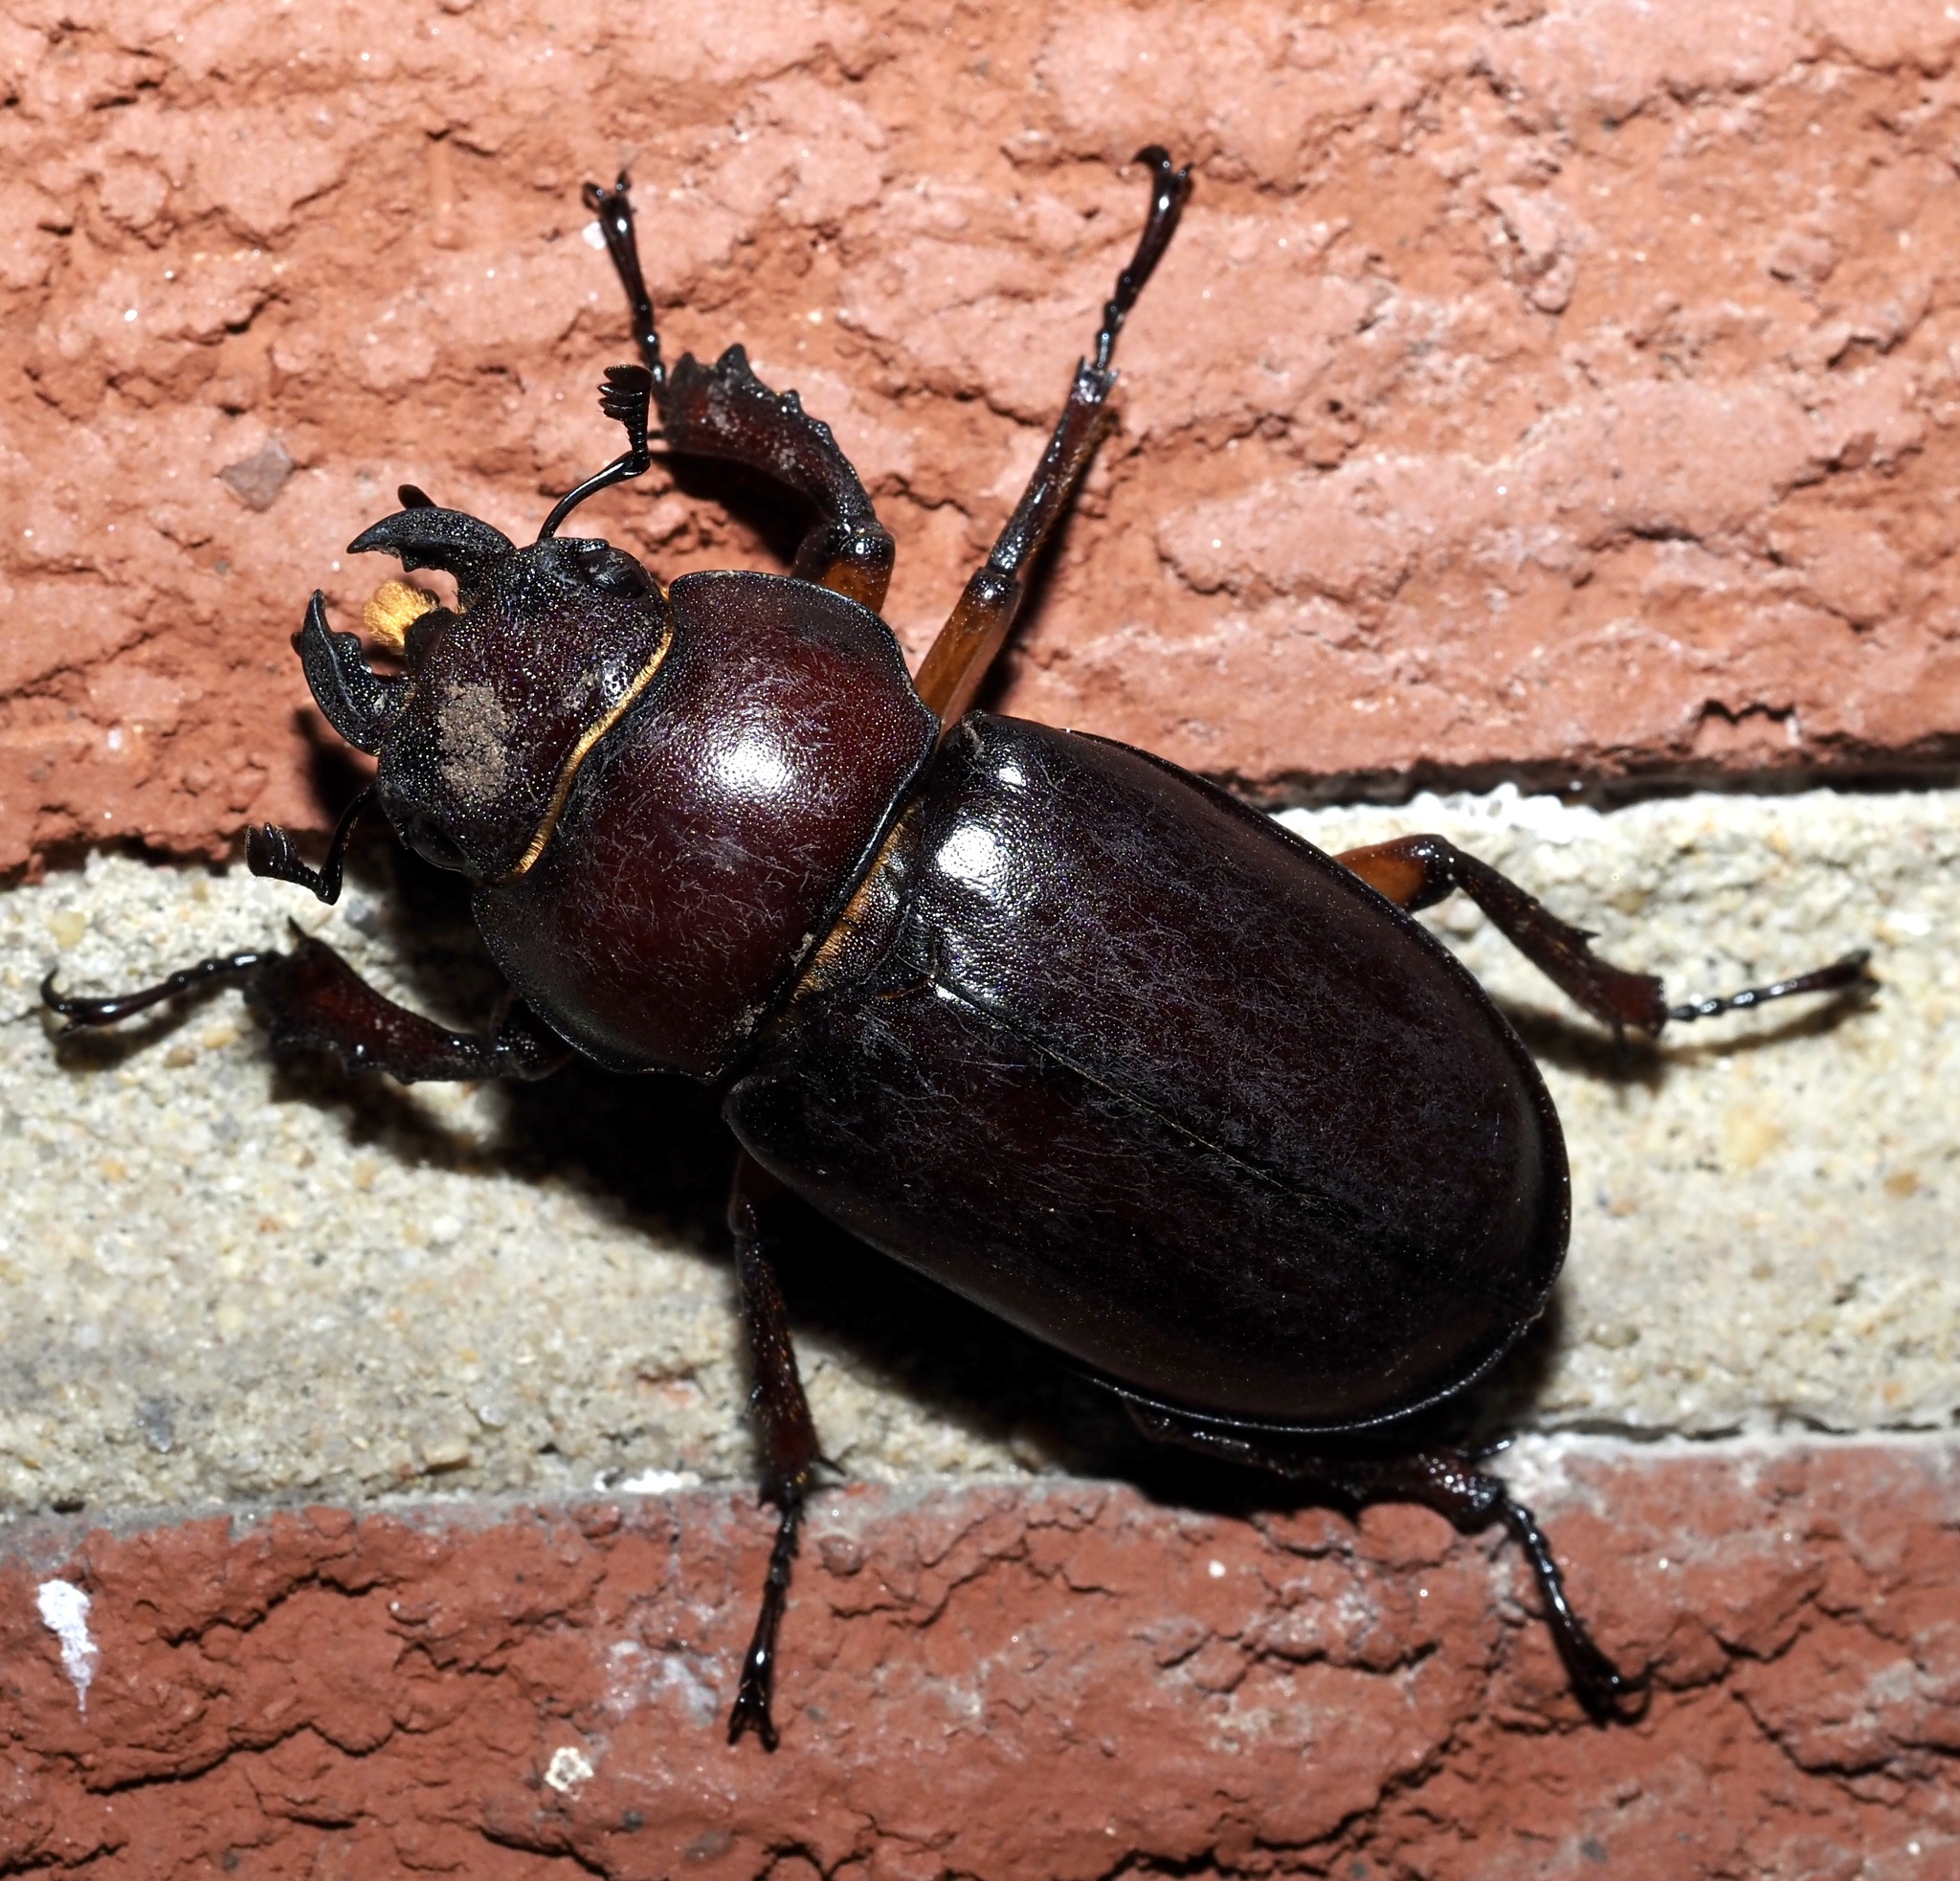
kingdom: Animalia
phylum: Arthropoda
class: Insecta
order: Coleoptera
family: Lucanidae
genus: Lucanus
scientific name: Lucanus capreolus
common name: Stag beetle
